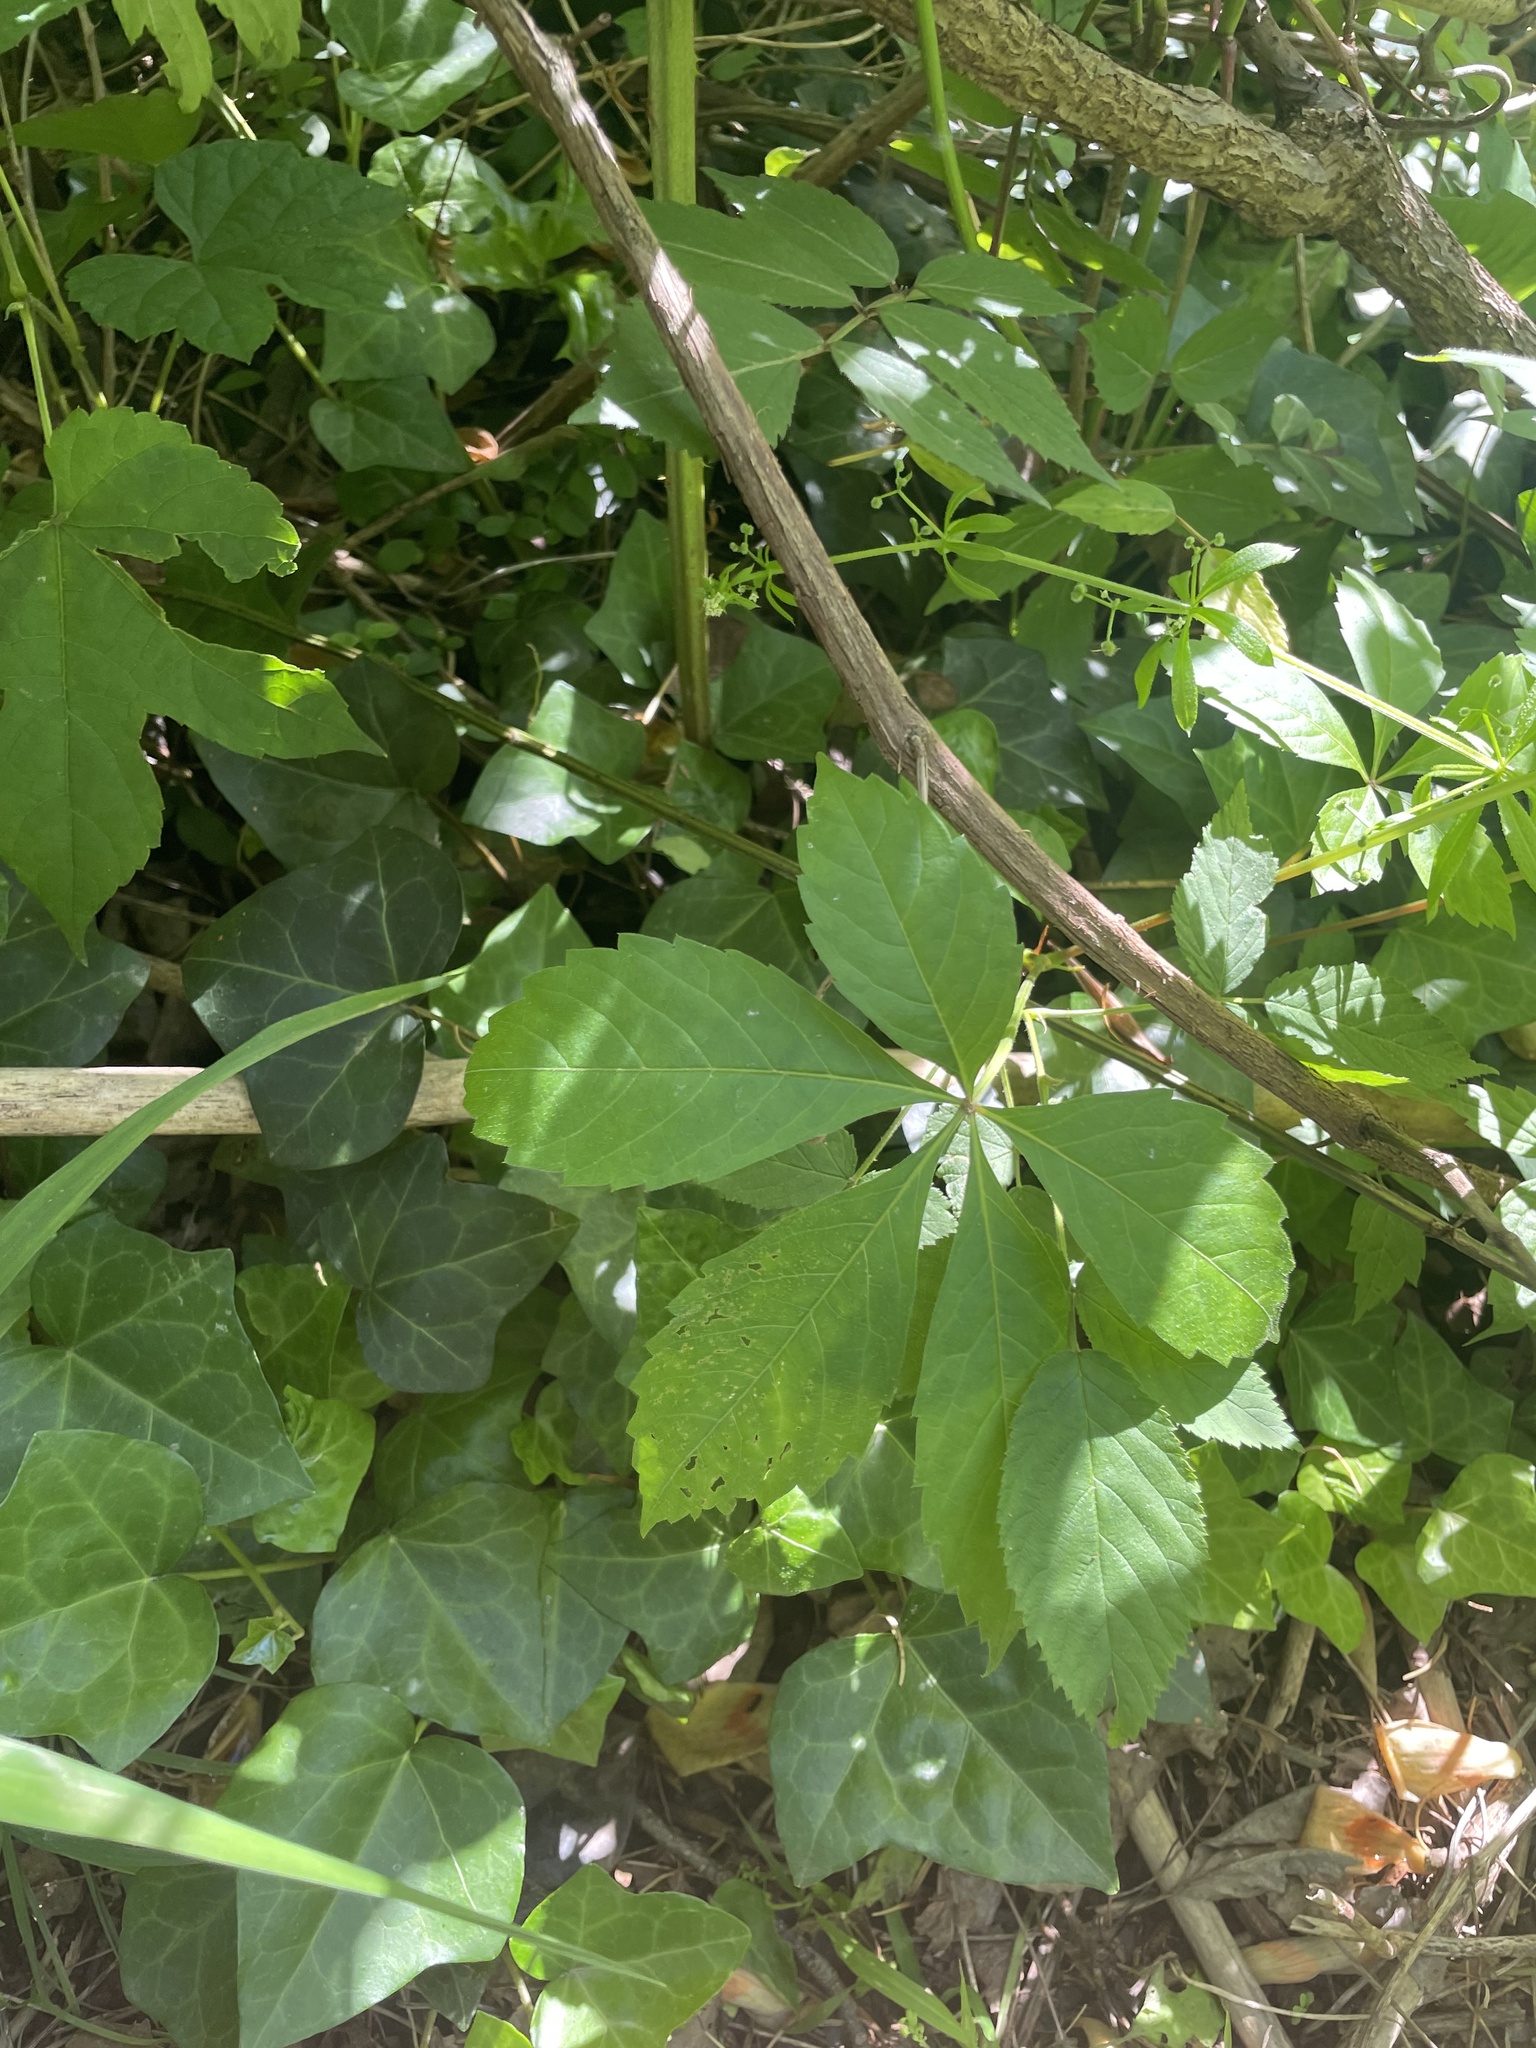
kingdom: Plantae
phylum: Tracheophyta
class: Magnoliopsida
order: Vitales
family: Vitaceae
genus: Parthenocissus
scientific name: Parthenocissus quinquefolia
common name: Virginia-creeper
